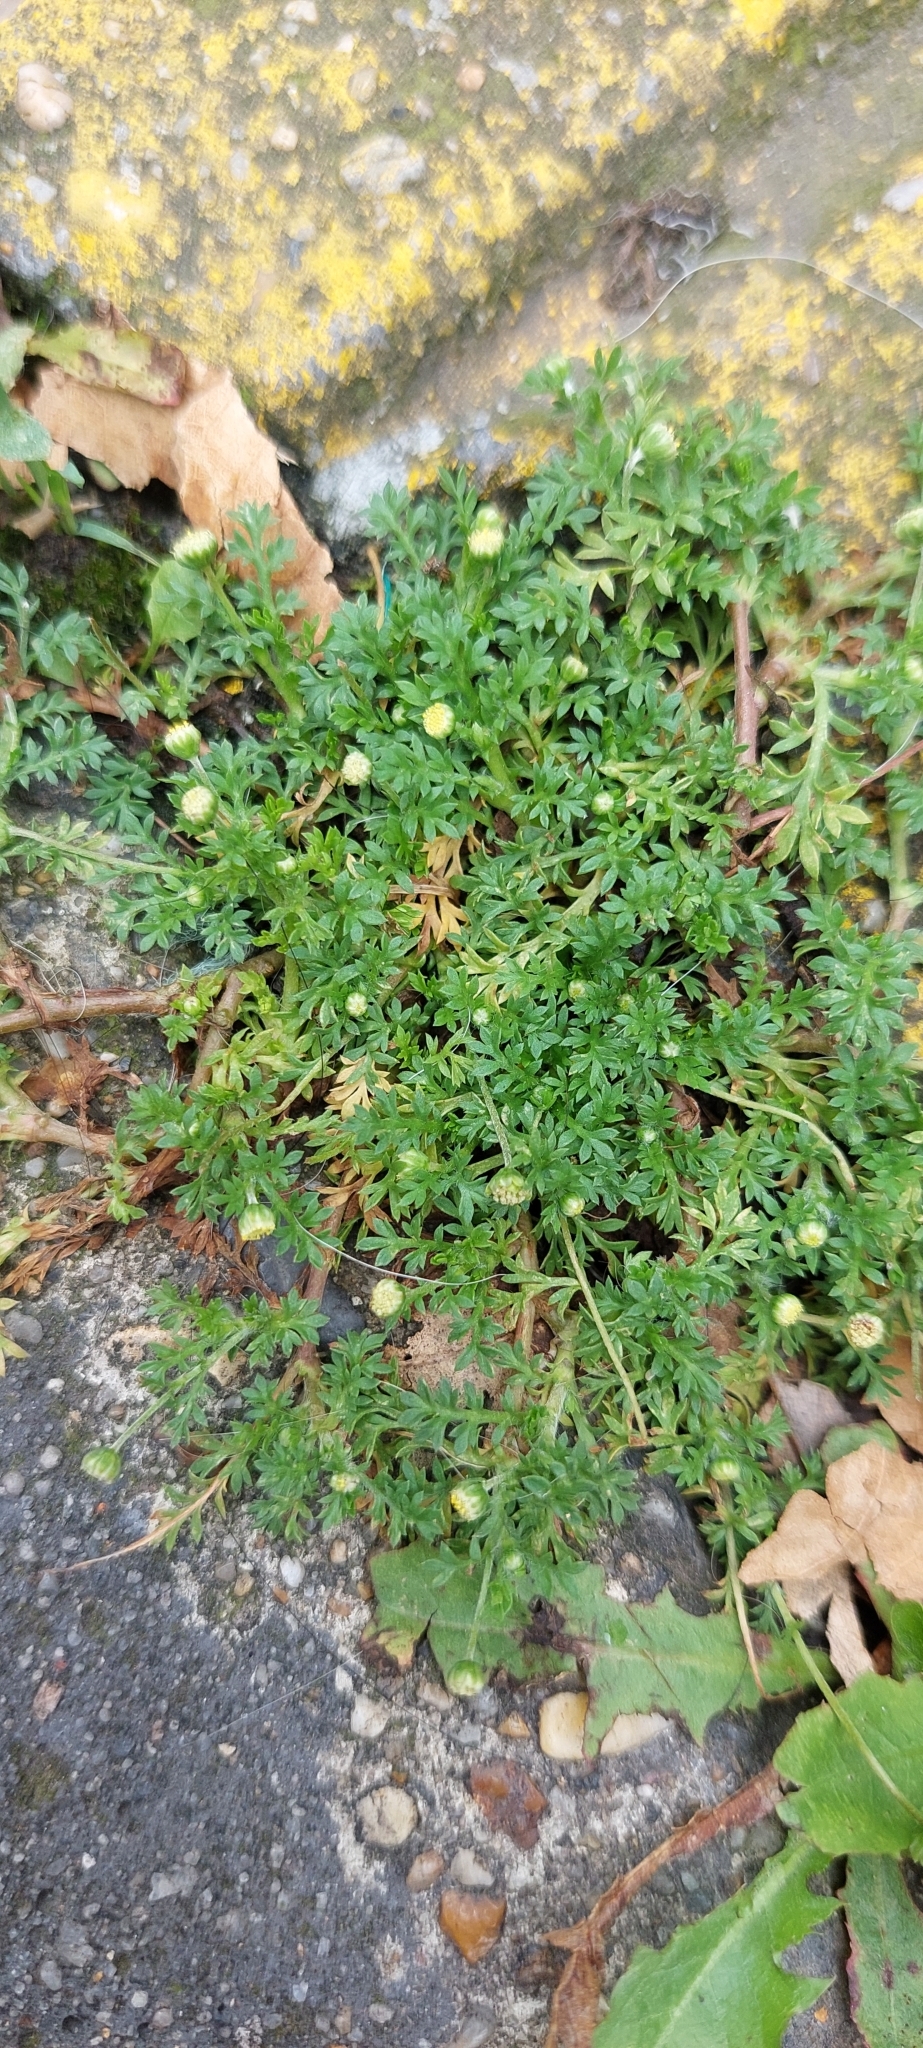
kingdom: Plantae
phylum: Tracheophyta
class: Magnoliopsida
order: Asterales
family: Asteraceae
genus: Cotula
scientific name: Cotula australis
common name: Australian waterbuttons
